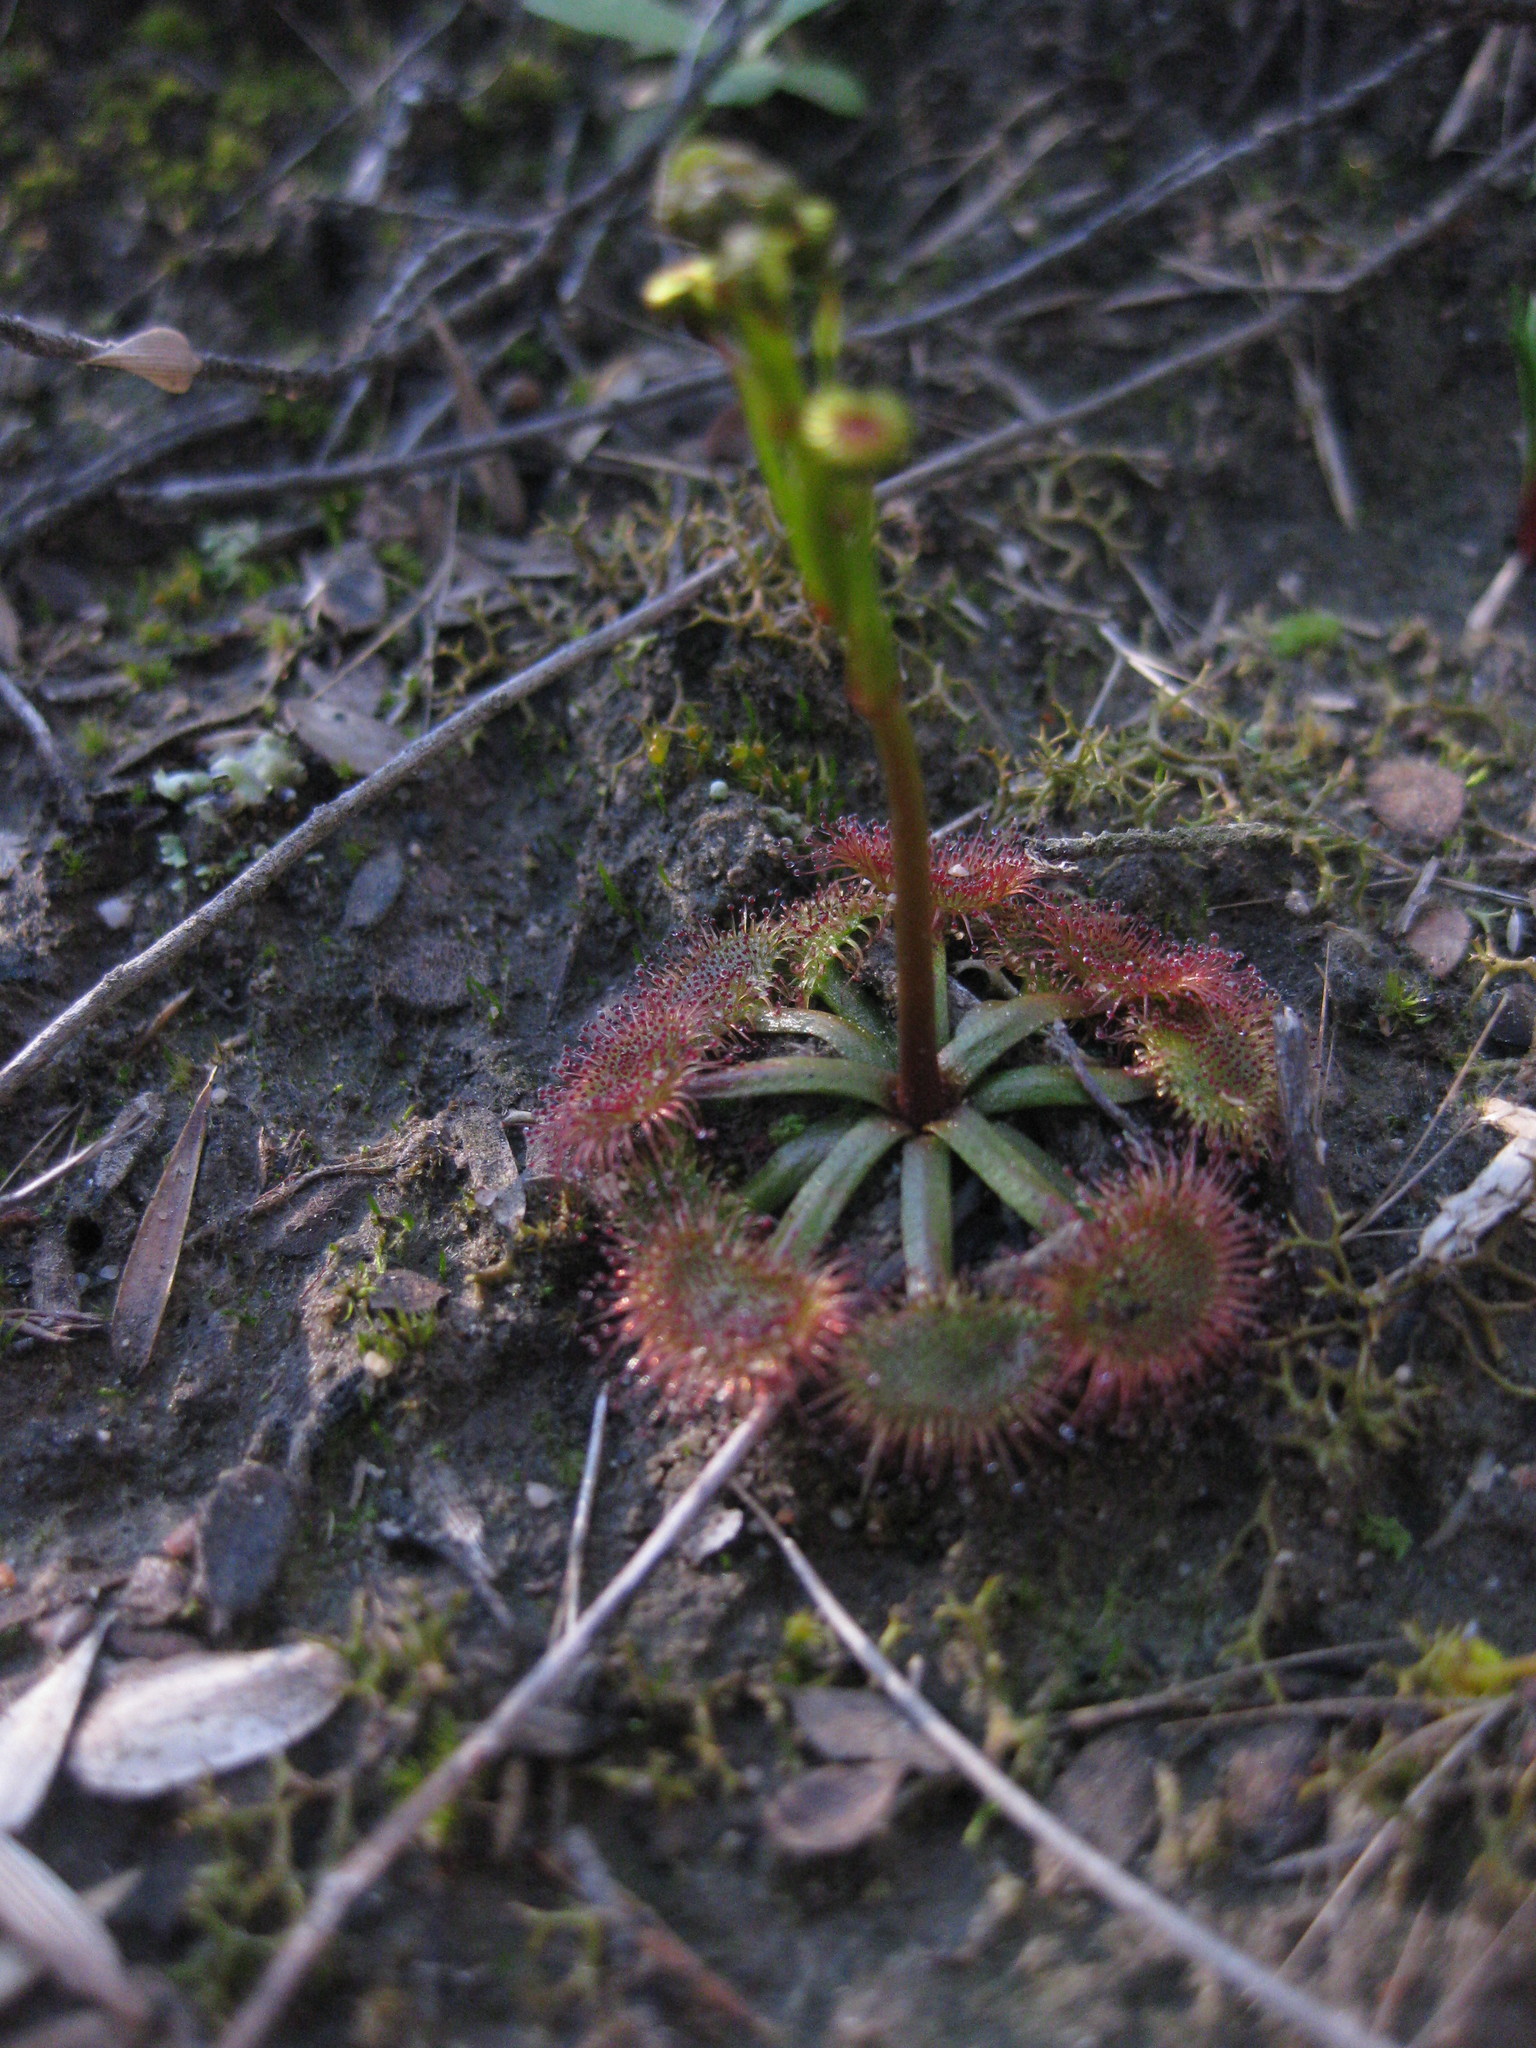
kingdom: Plantae
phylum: Tracheophyta
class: Magnoliopsida
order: Caryophyllales
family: Droseraceae
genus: Drosera
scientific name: Drosera
